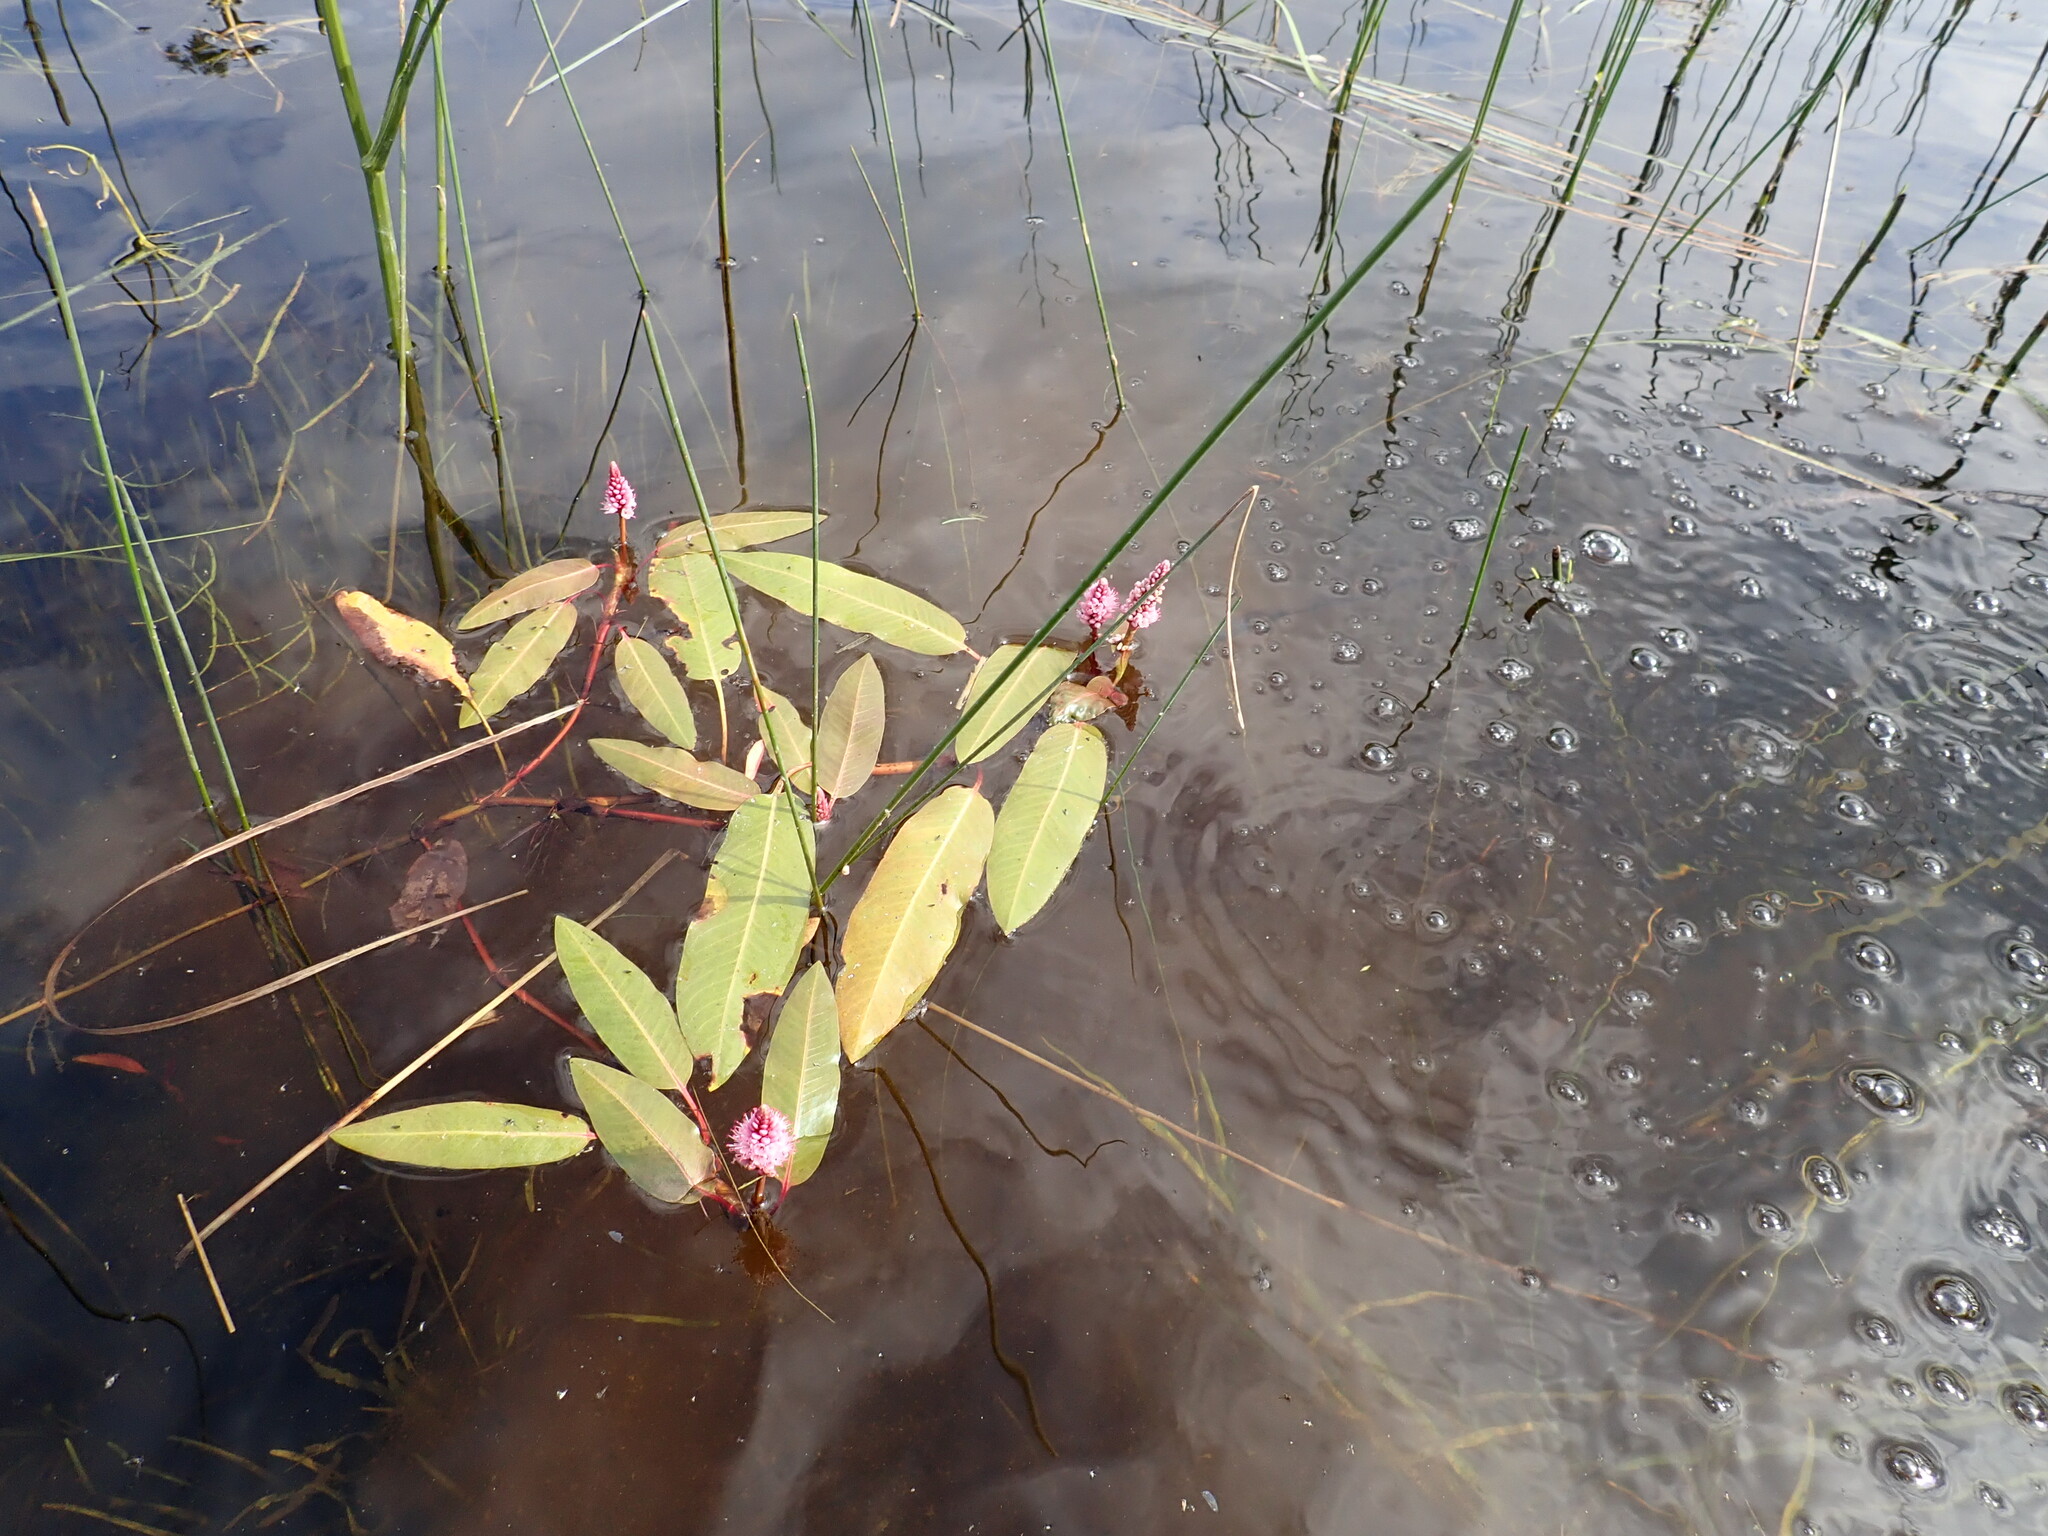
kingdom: Plantae
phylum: Tracheophyta
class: Magnoliopsida
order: Caryophyllales
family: Polygonaceae
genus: Persicaria
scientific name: Persicaria amphibia
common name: Amphibious bistort
